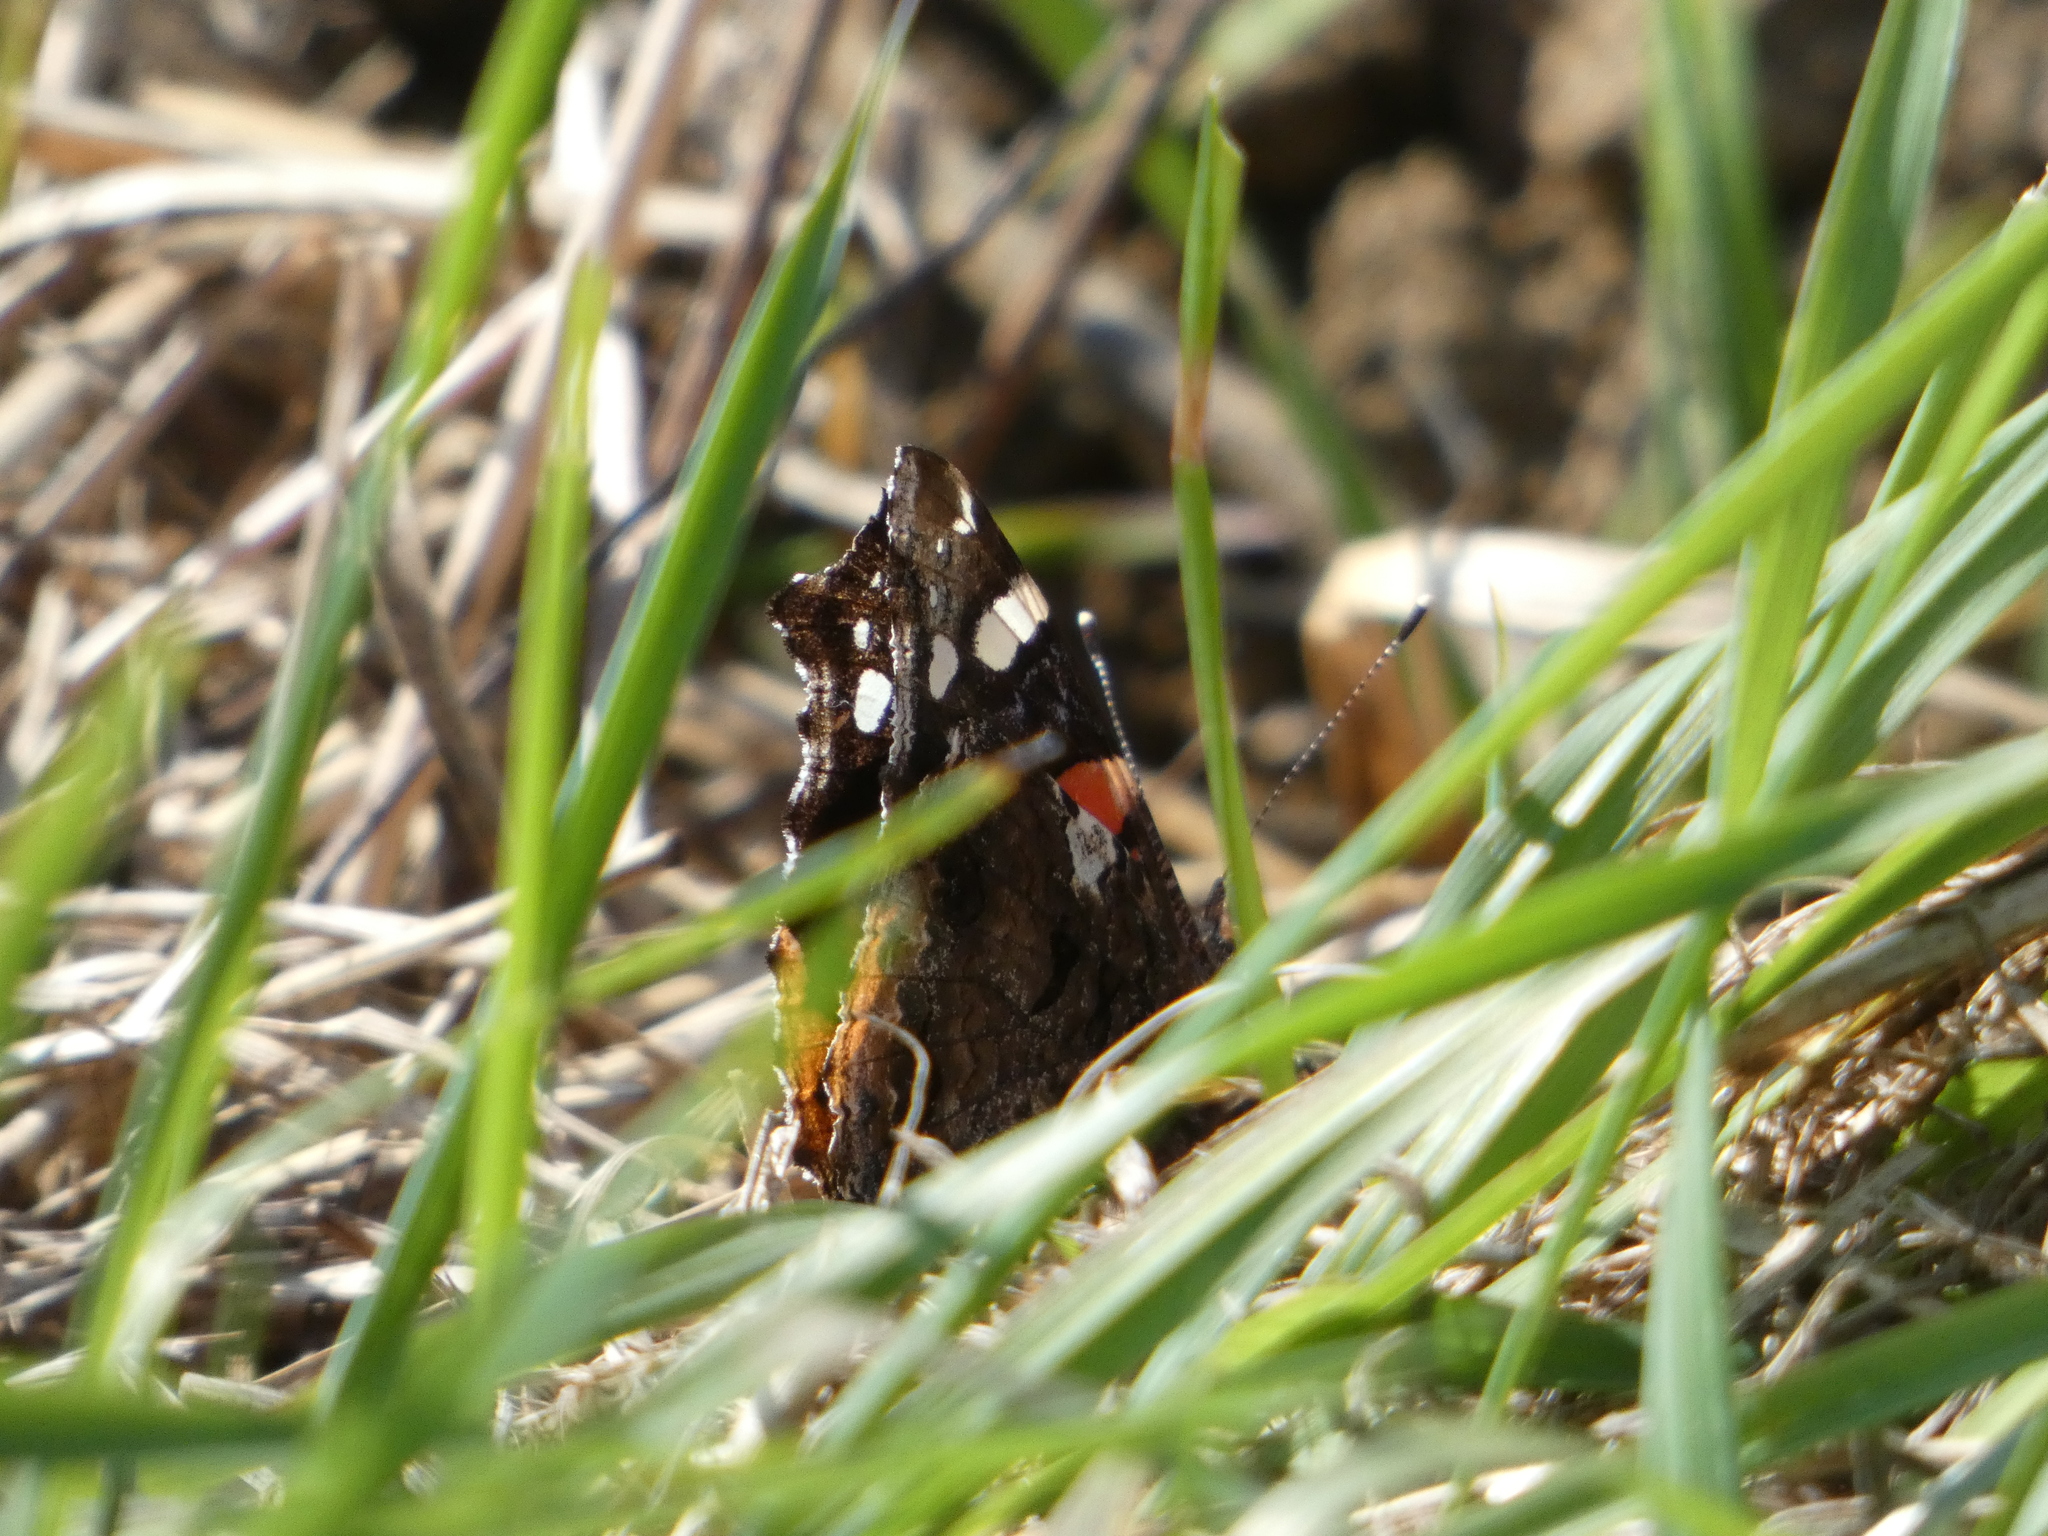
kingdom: Animalia
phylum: Arthropoda
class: Insecta
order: Lepidoptera
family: Nymphalidae
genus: Vanessa
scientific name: Vanessa atalanta
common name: Red admiral
